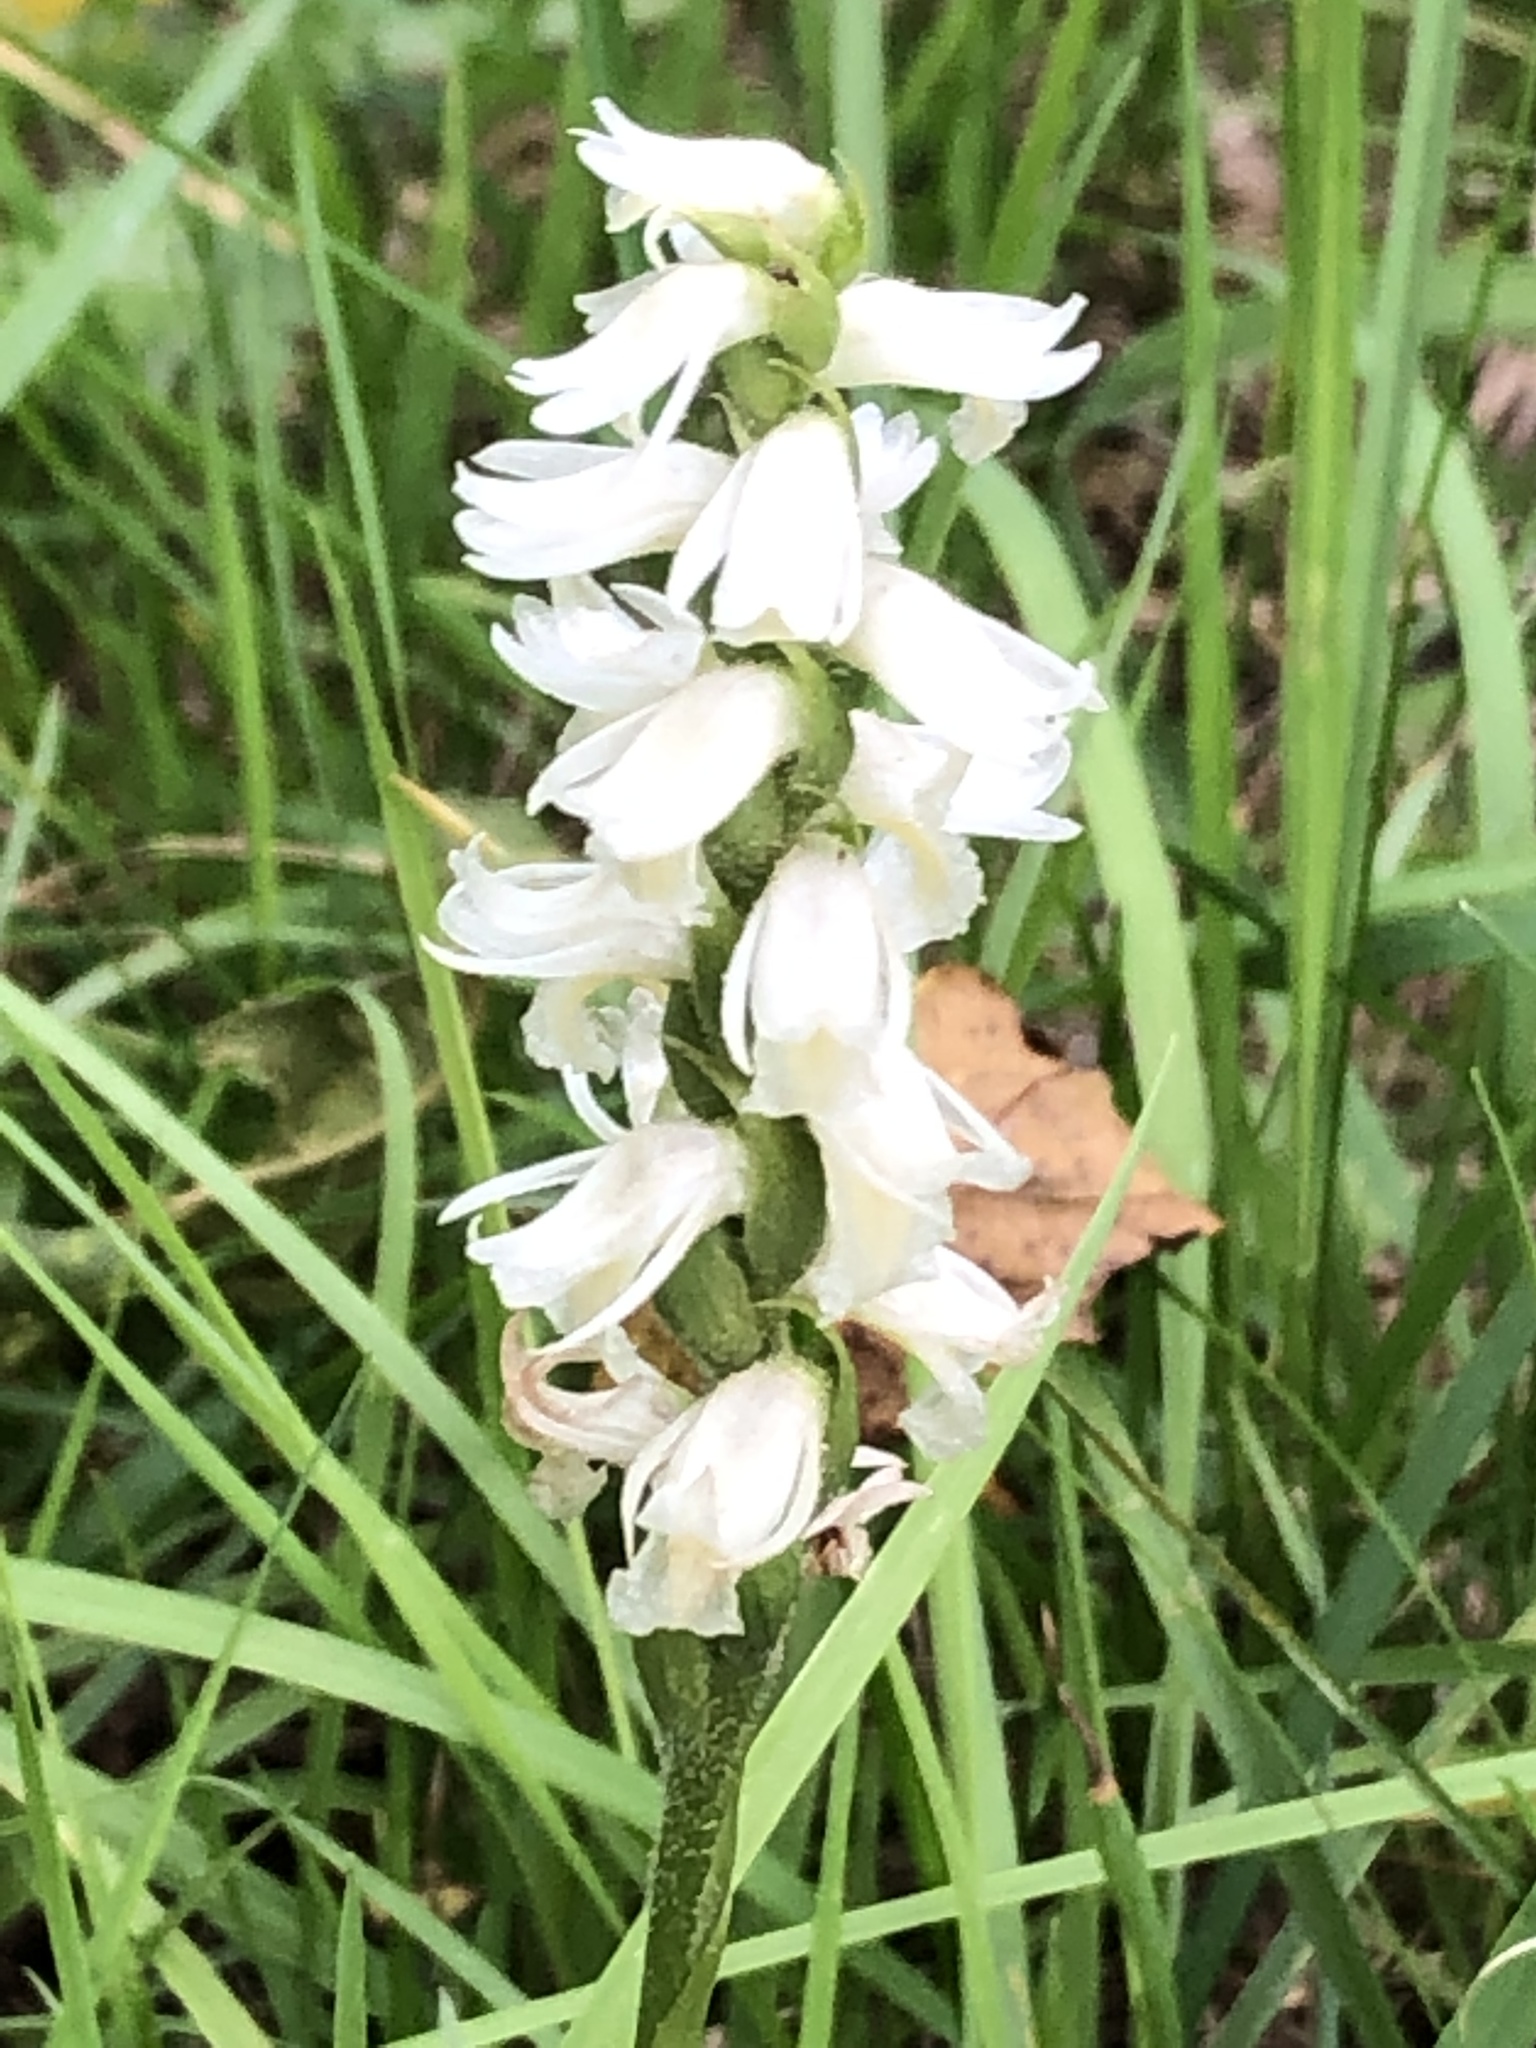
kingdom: Plantae
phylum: Tracheophyta
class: Liliopsida
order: Asparagales
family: Orchidaceae
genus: Spiranthes
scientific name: Spiranthes magnicamporum
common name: Great plains ladies'-tresses
